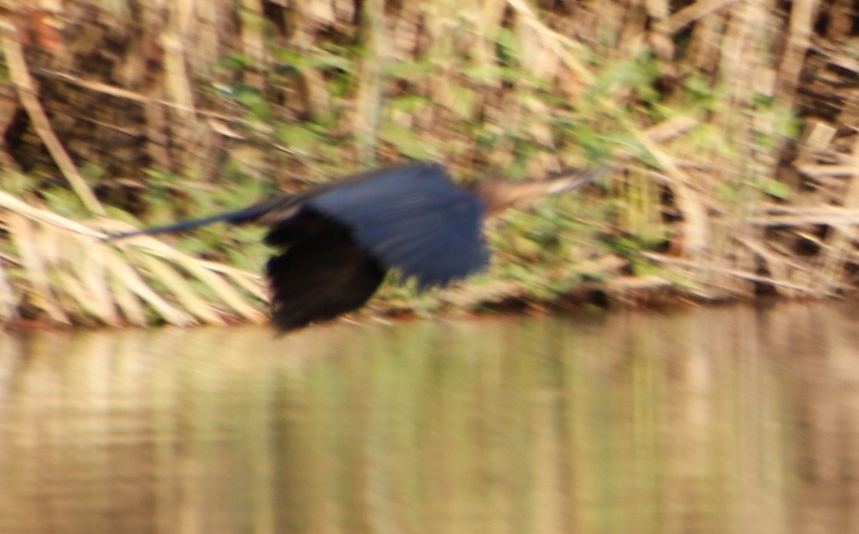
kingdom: Animalia
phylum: Chordata
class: Aves
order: Suliformes
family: Anhingidae
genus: Anhinga
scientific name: Anhinga rufa
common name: African darter
